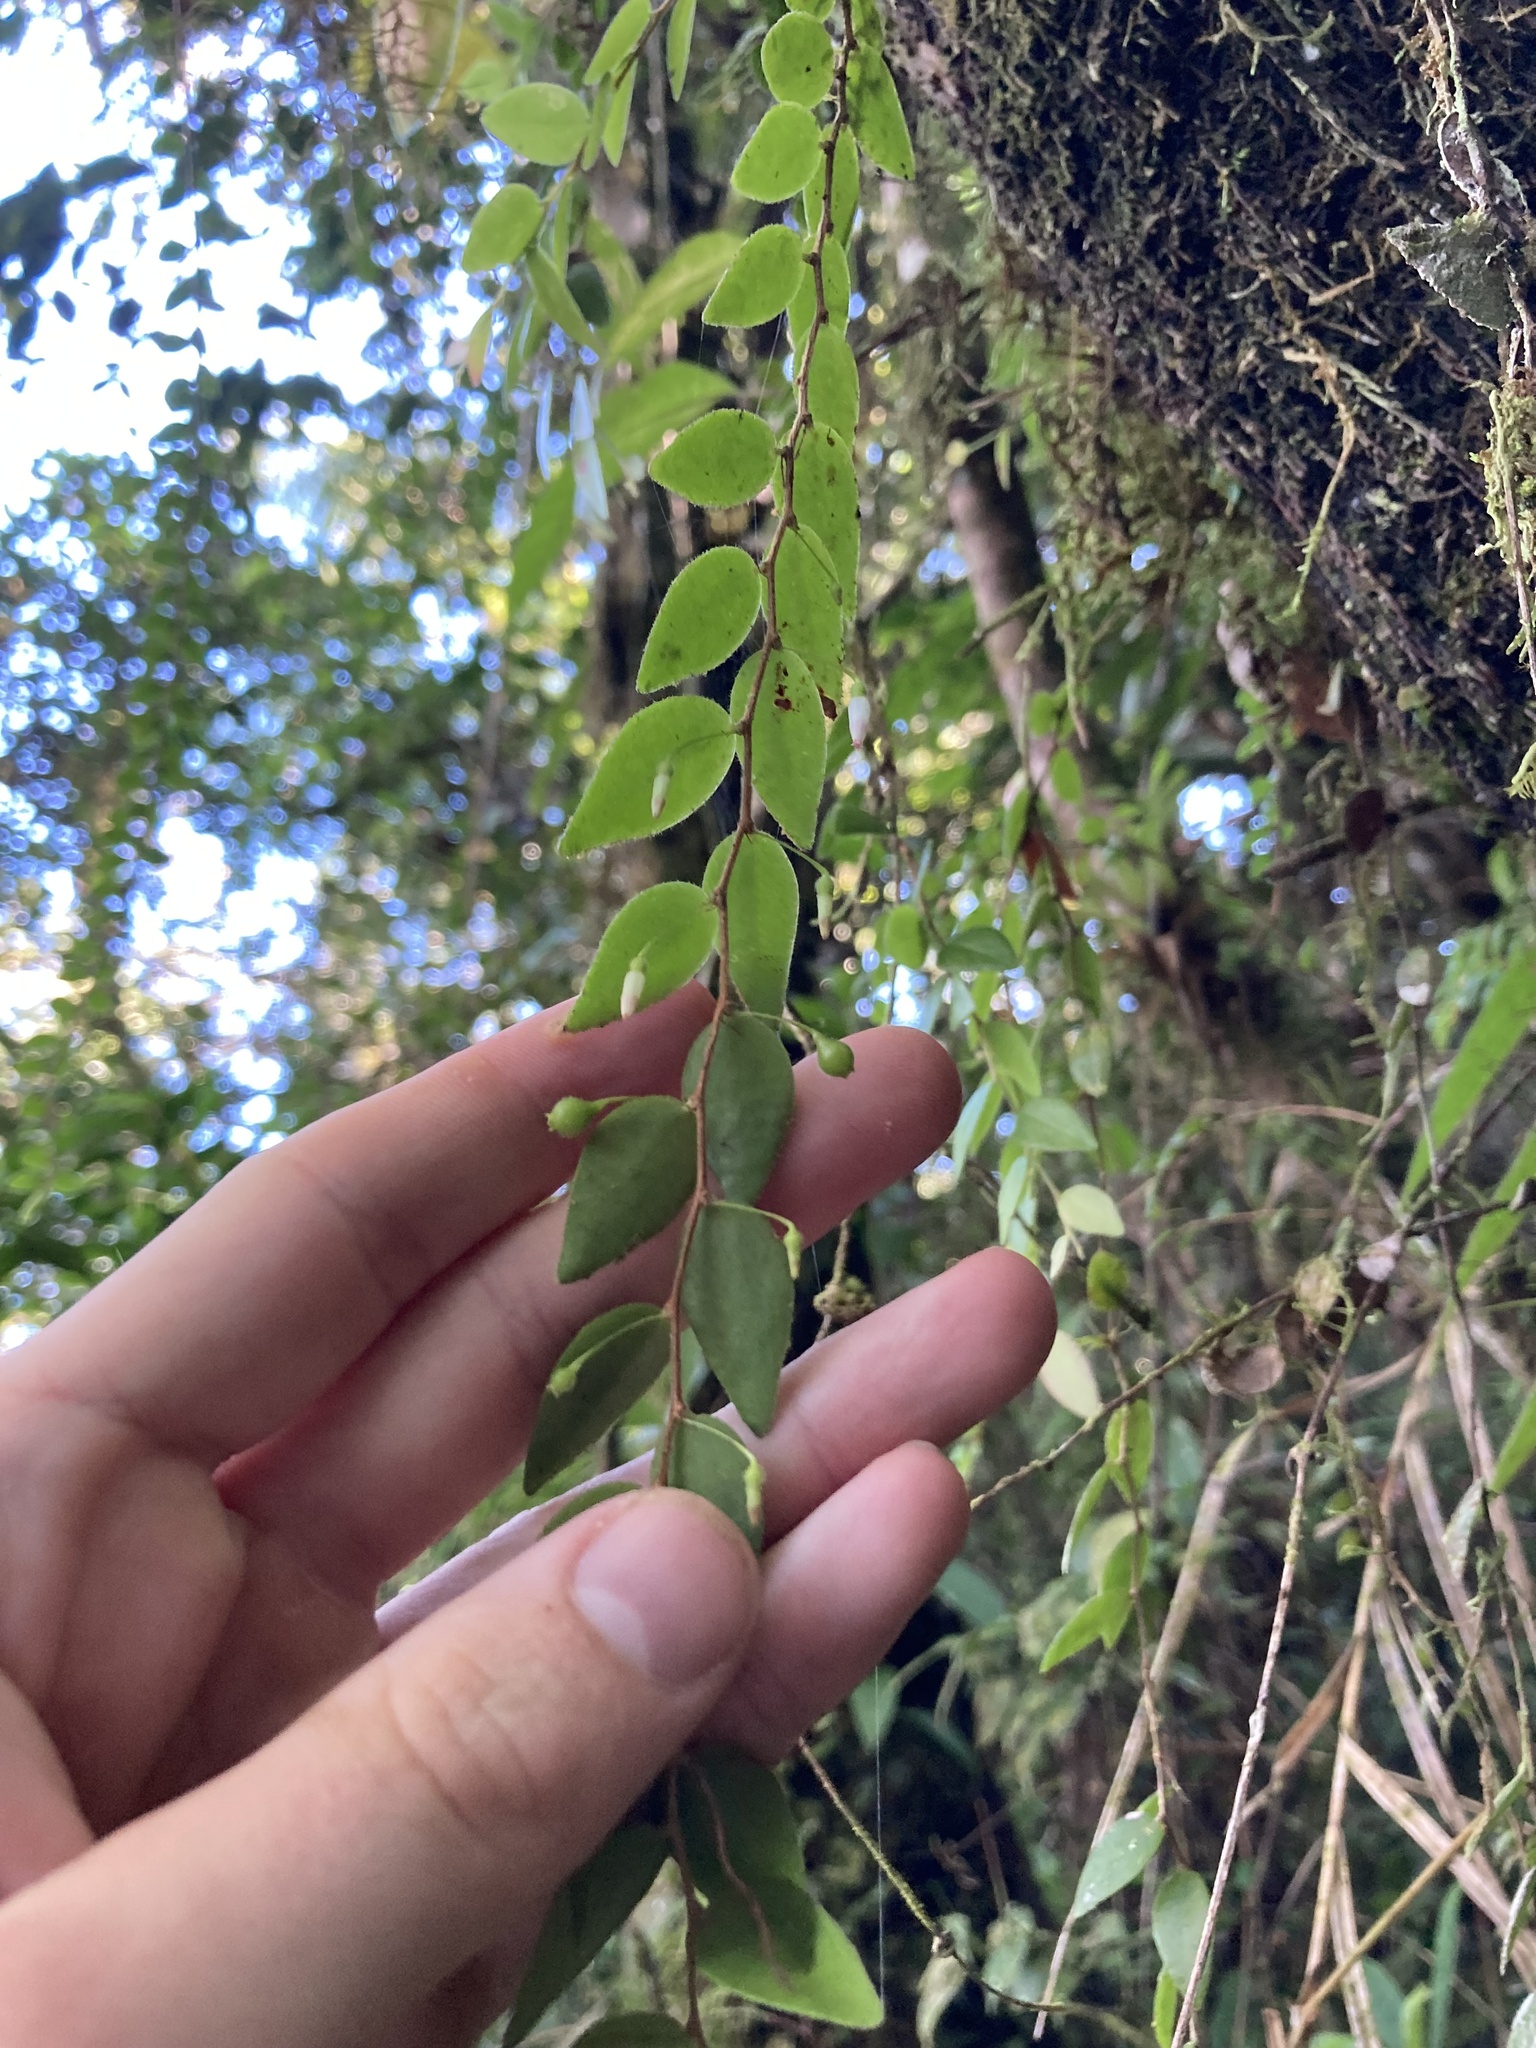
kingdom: Plantae
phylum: Tracheophyta
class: Magnoliopsida
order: Ericales
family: Ericaceae
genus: Sphyrospermum
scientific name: Sphyrospermum buxifolium
